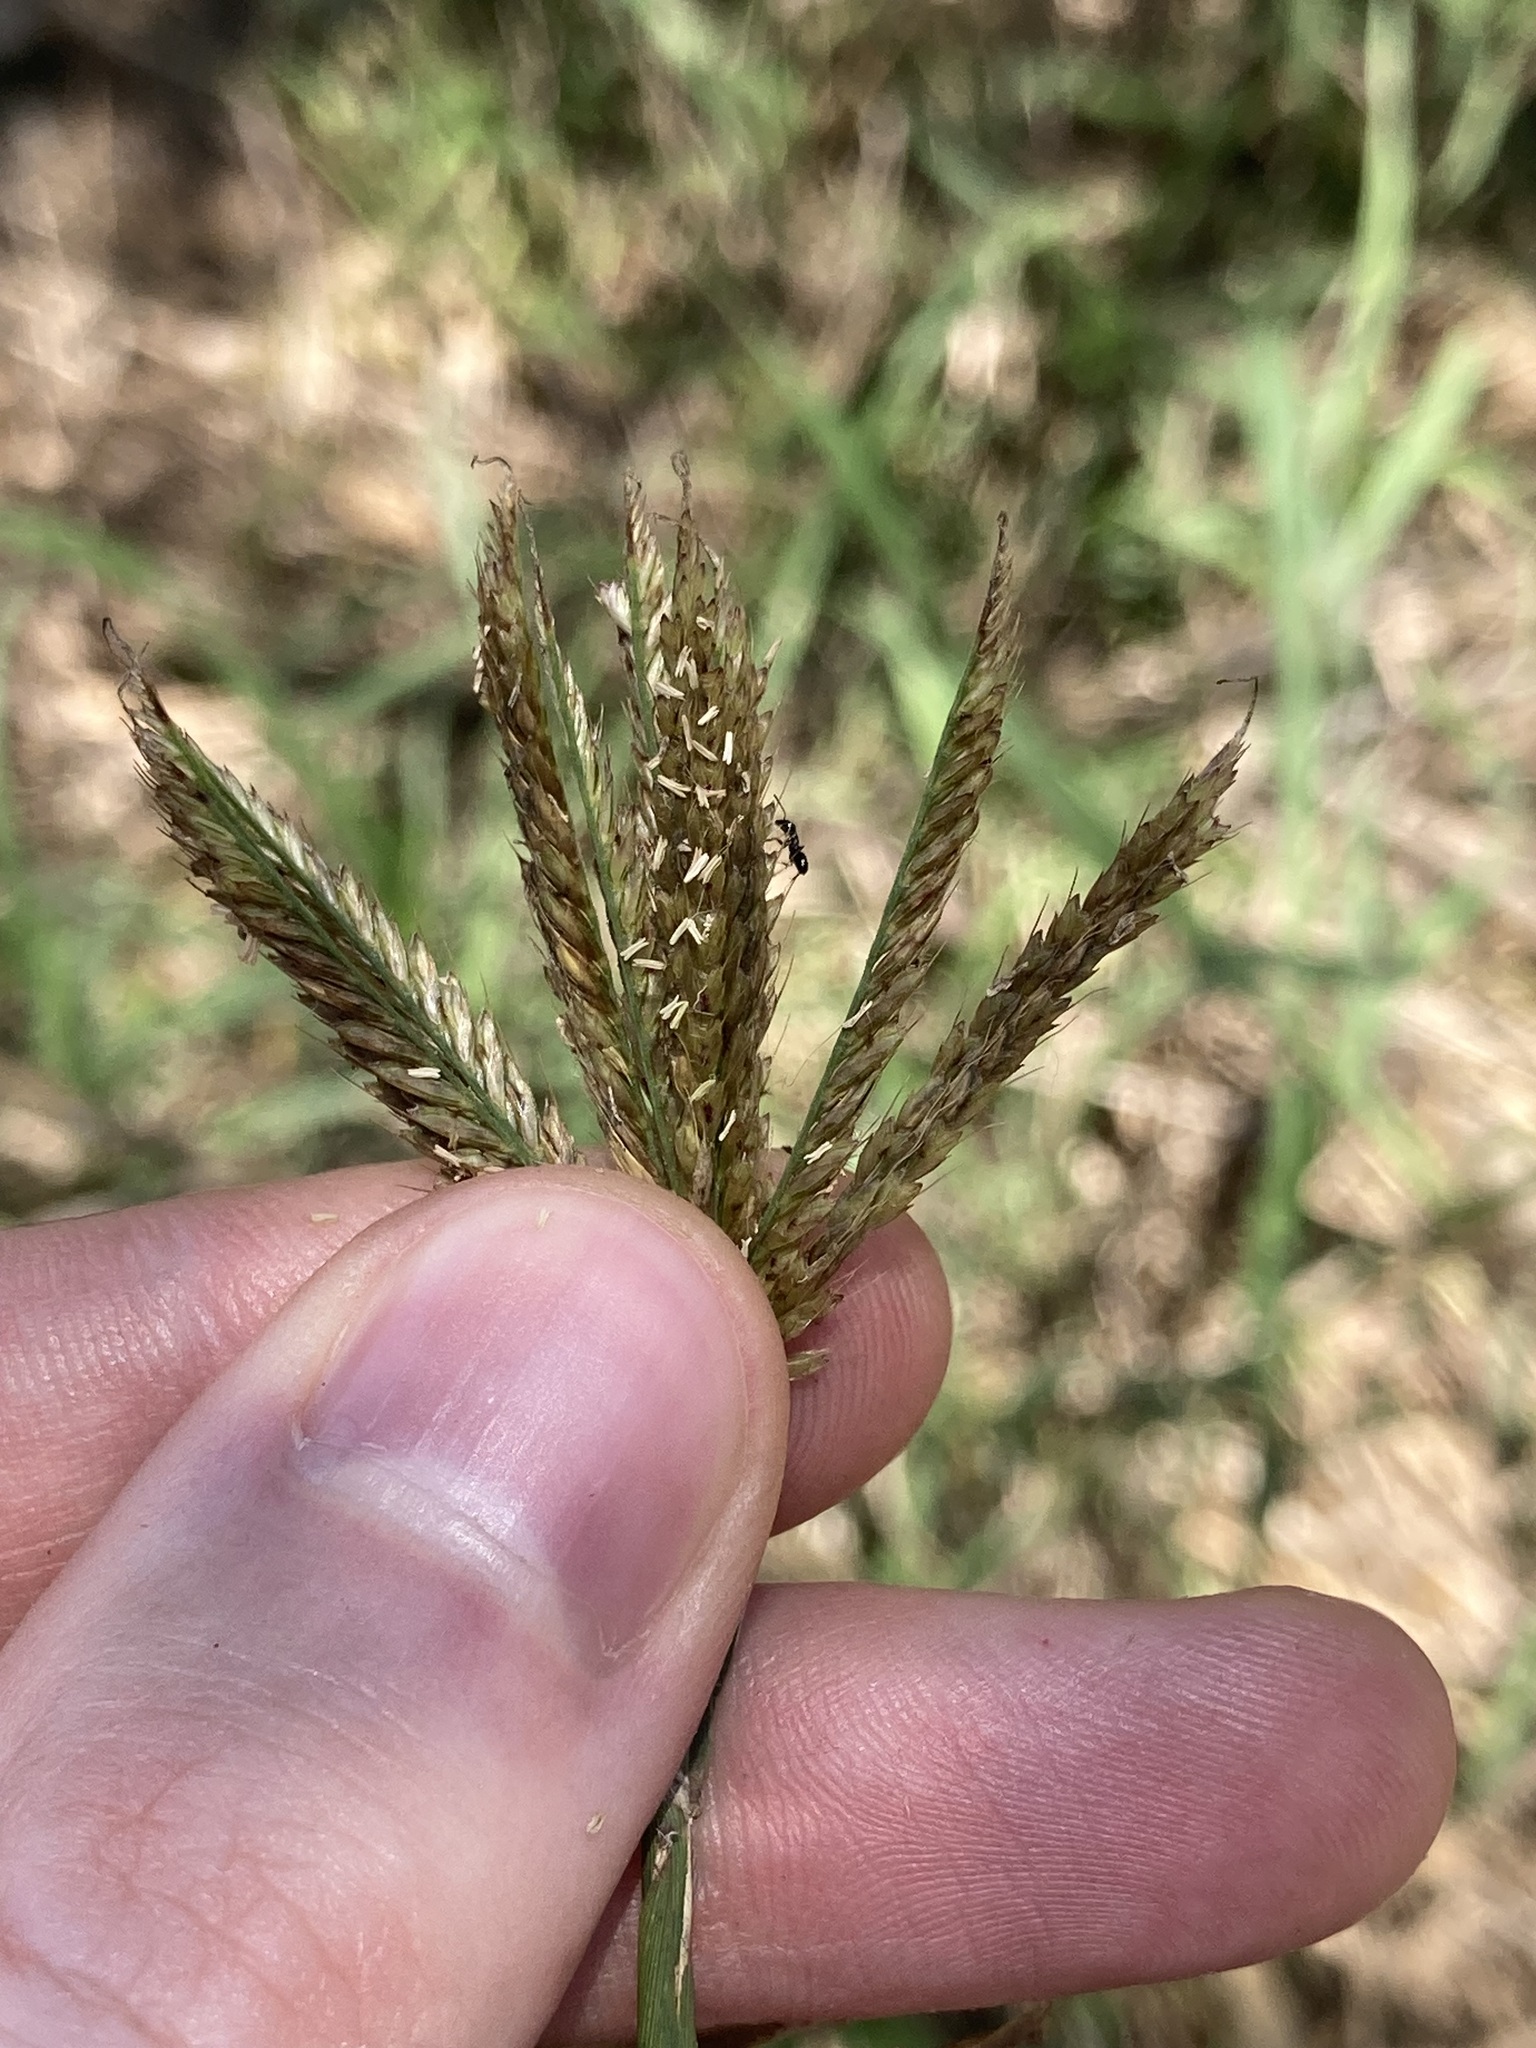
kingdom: Plantae
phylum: Tracheophyta
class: Liliopsida
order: Poales
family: Poaceae
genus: Chloris
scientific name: Chloris gayana
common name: Rhodes grass
